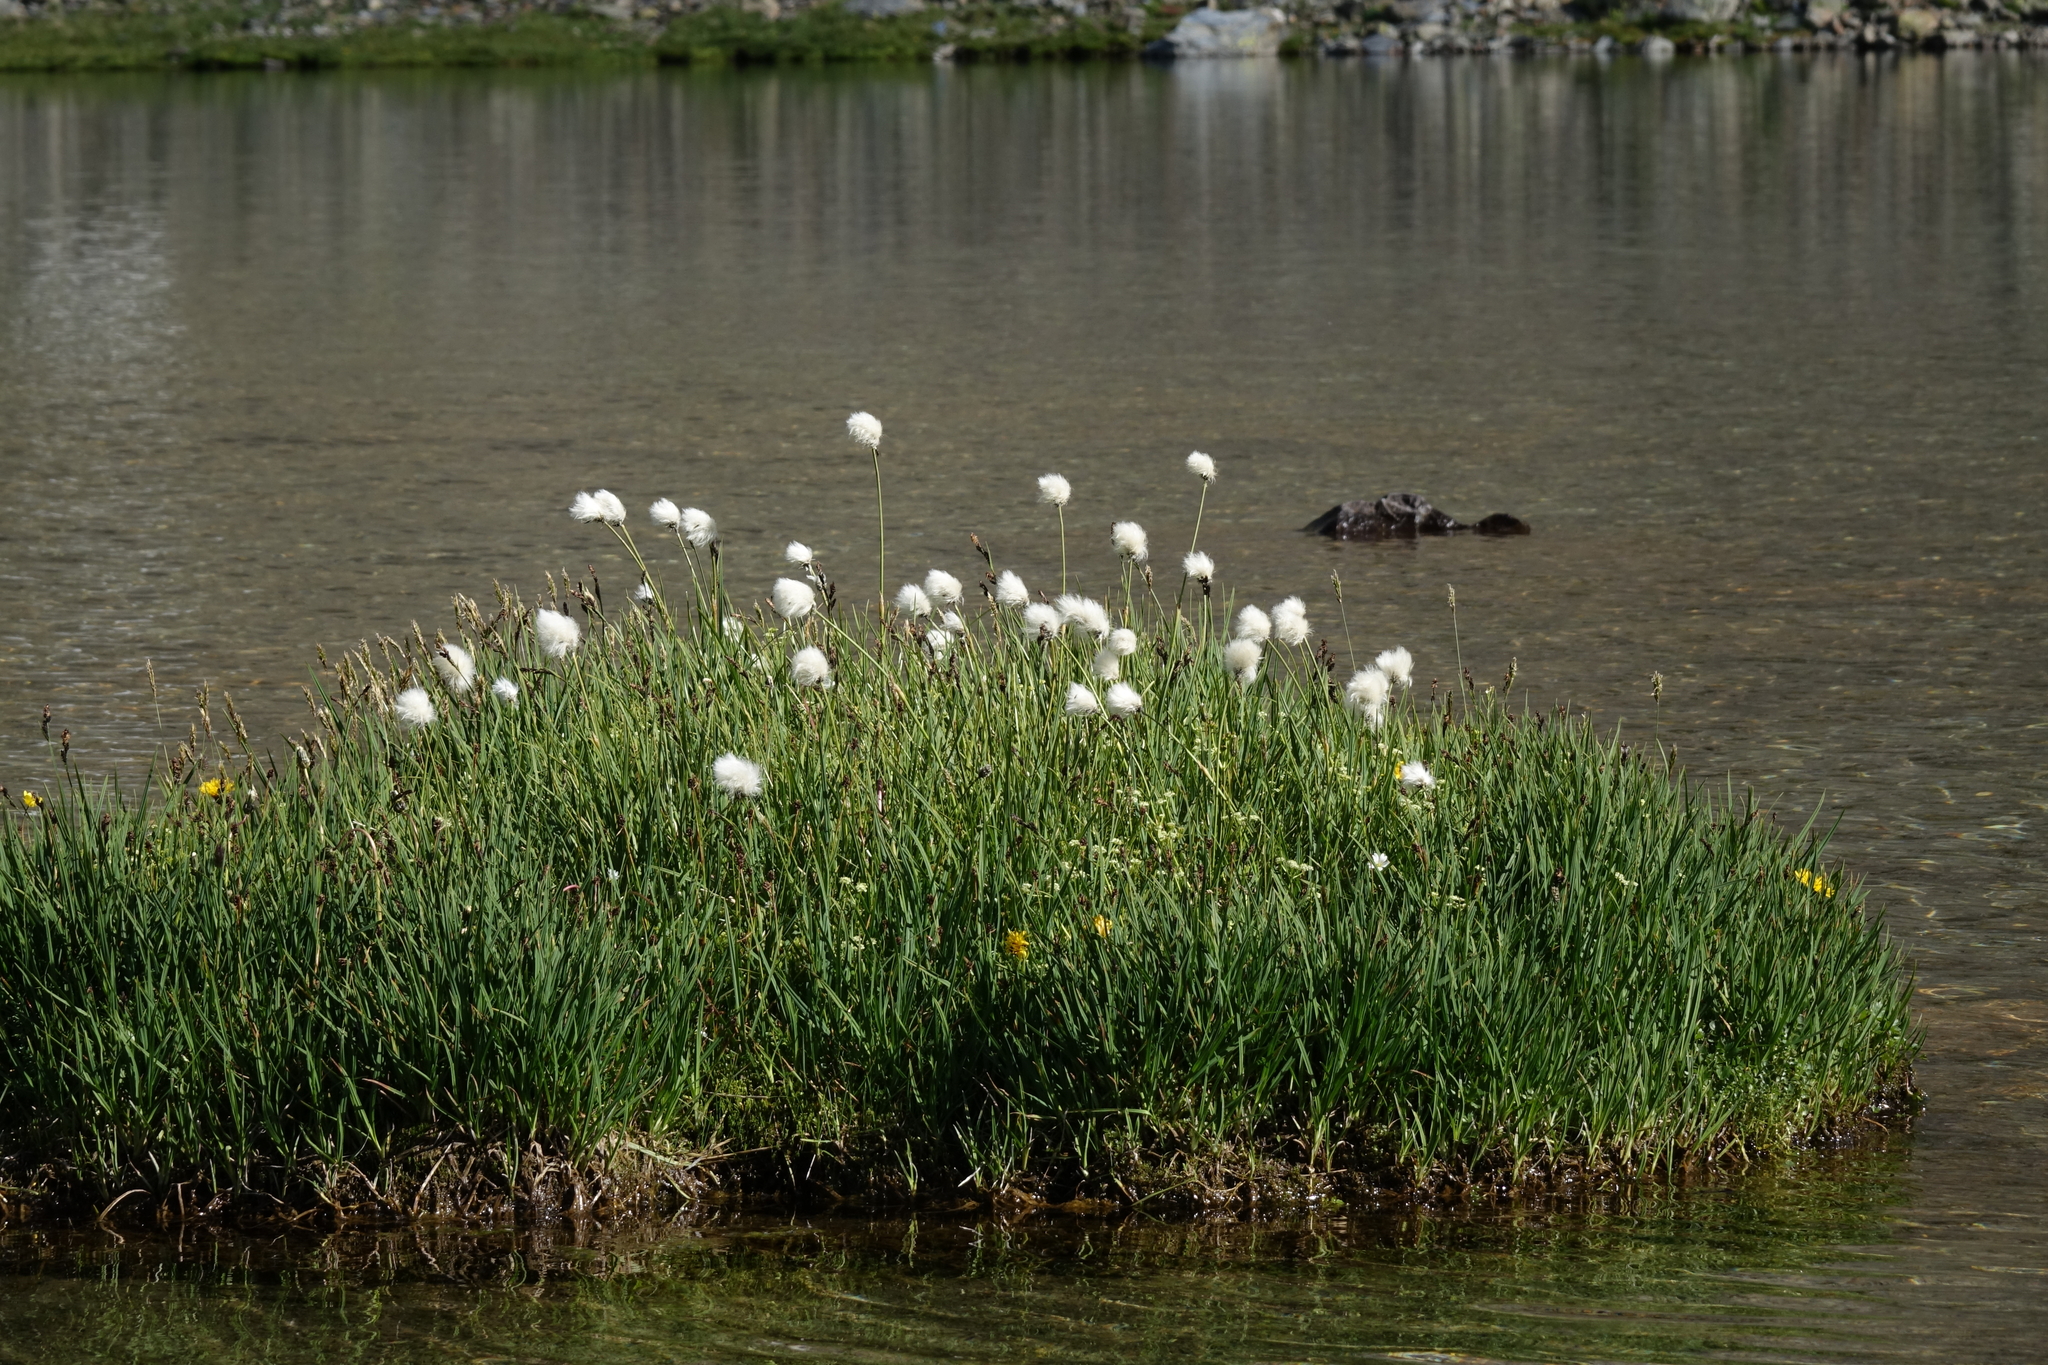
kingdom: Plantae
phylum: Tracheophyta
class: Liliopsida
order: Poales
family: Cyperaceae
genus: Eriophorum
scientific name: Eriophorum vaginatum
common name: Hare's-tail cottongrass
